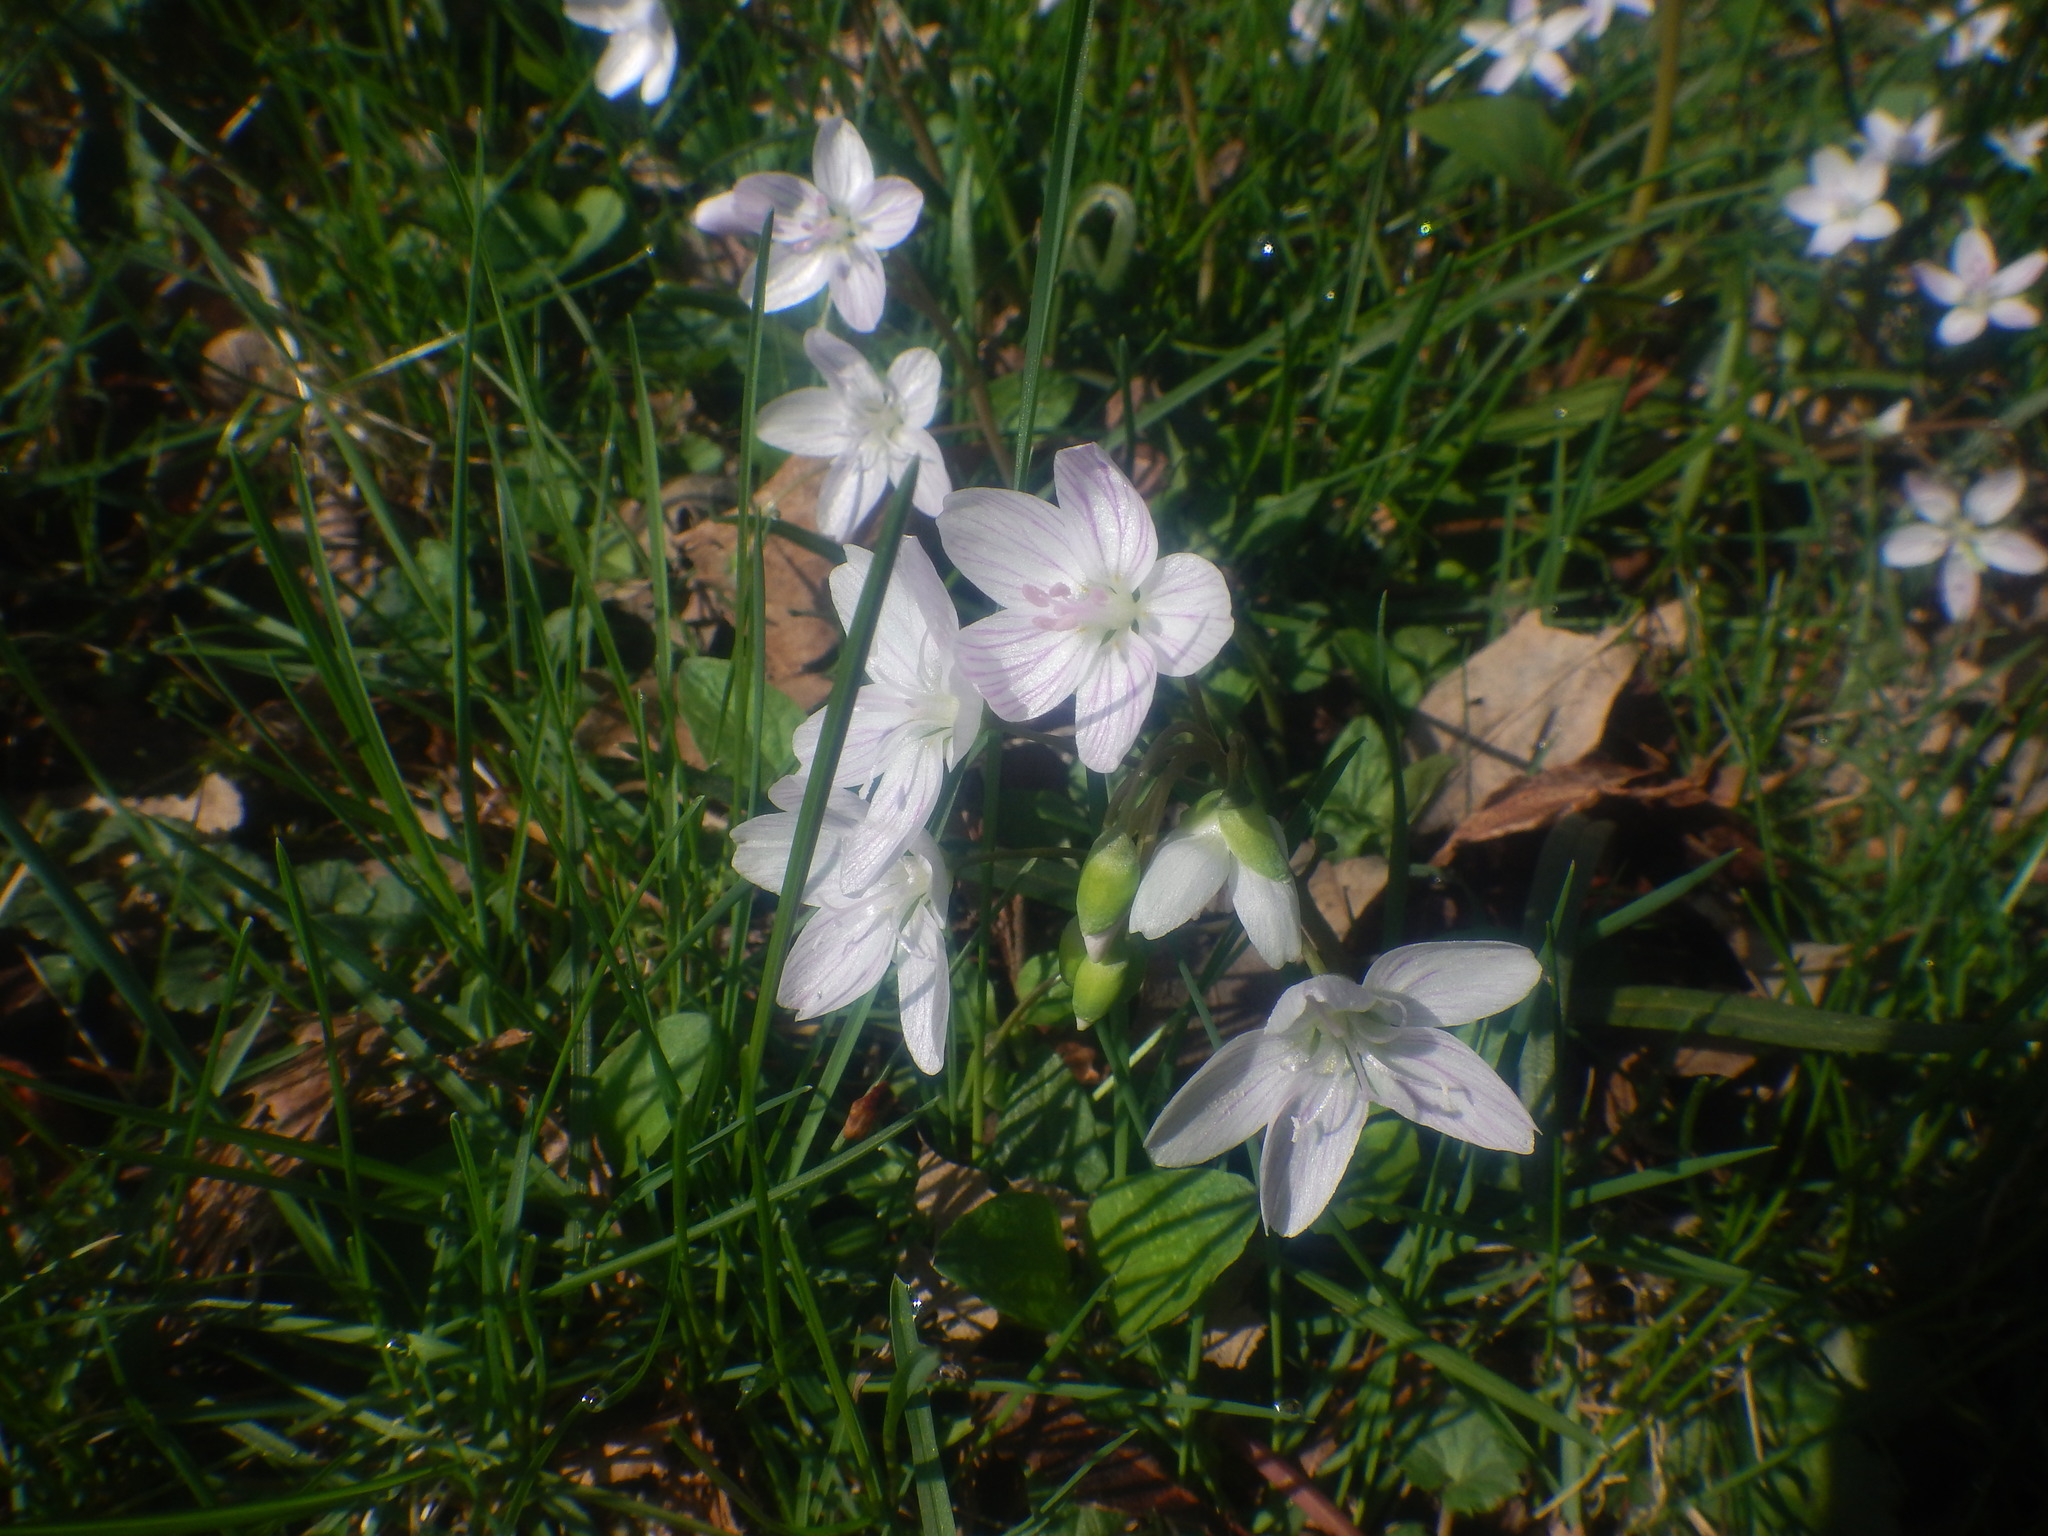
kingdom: Plantae
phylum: Tracheophyta
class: Magnoliopsida
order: Caryophyllales
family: Montiaceae
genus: Claytonia
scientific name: Claytonia virginica
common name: Virginia springbeauty
